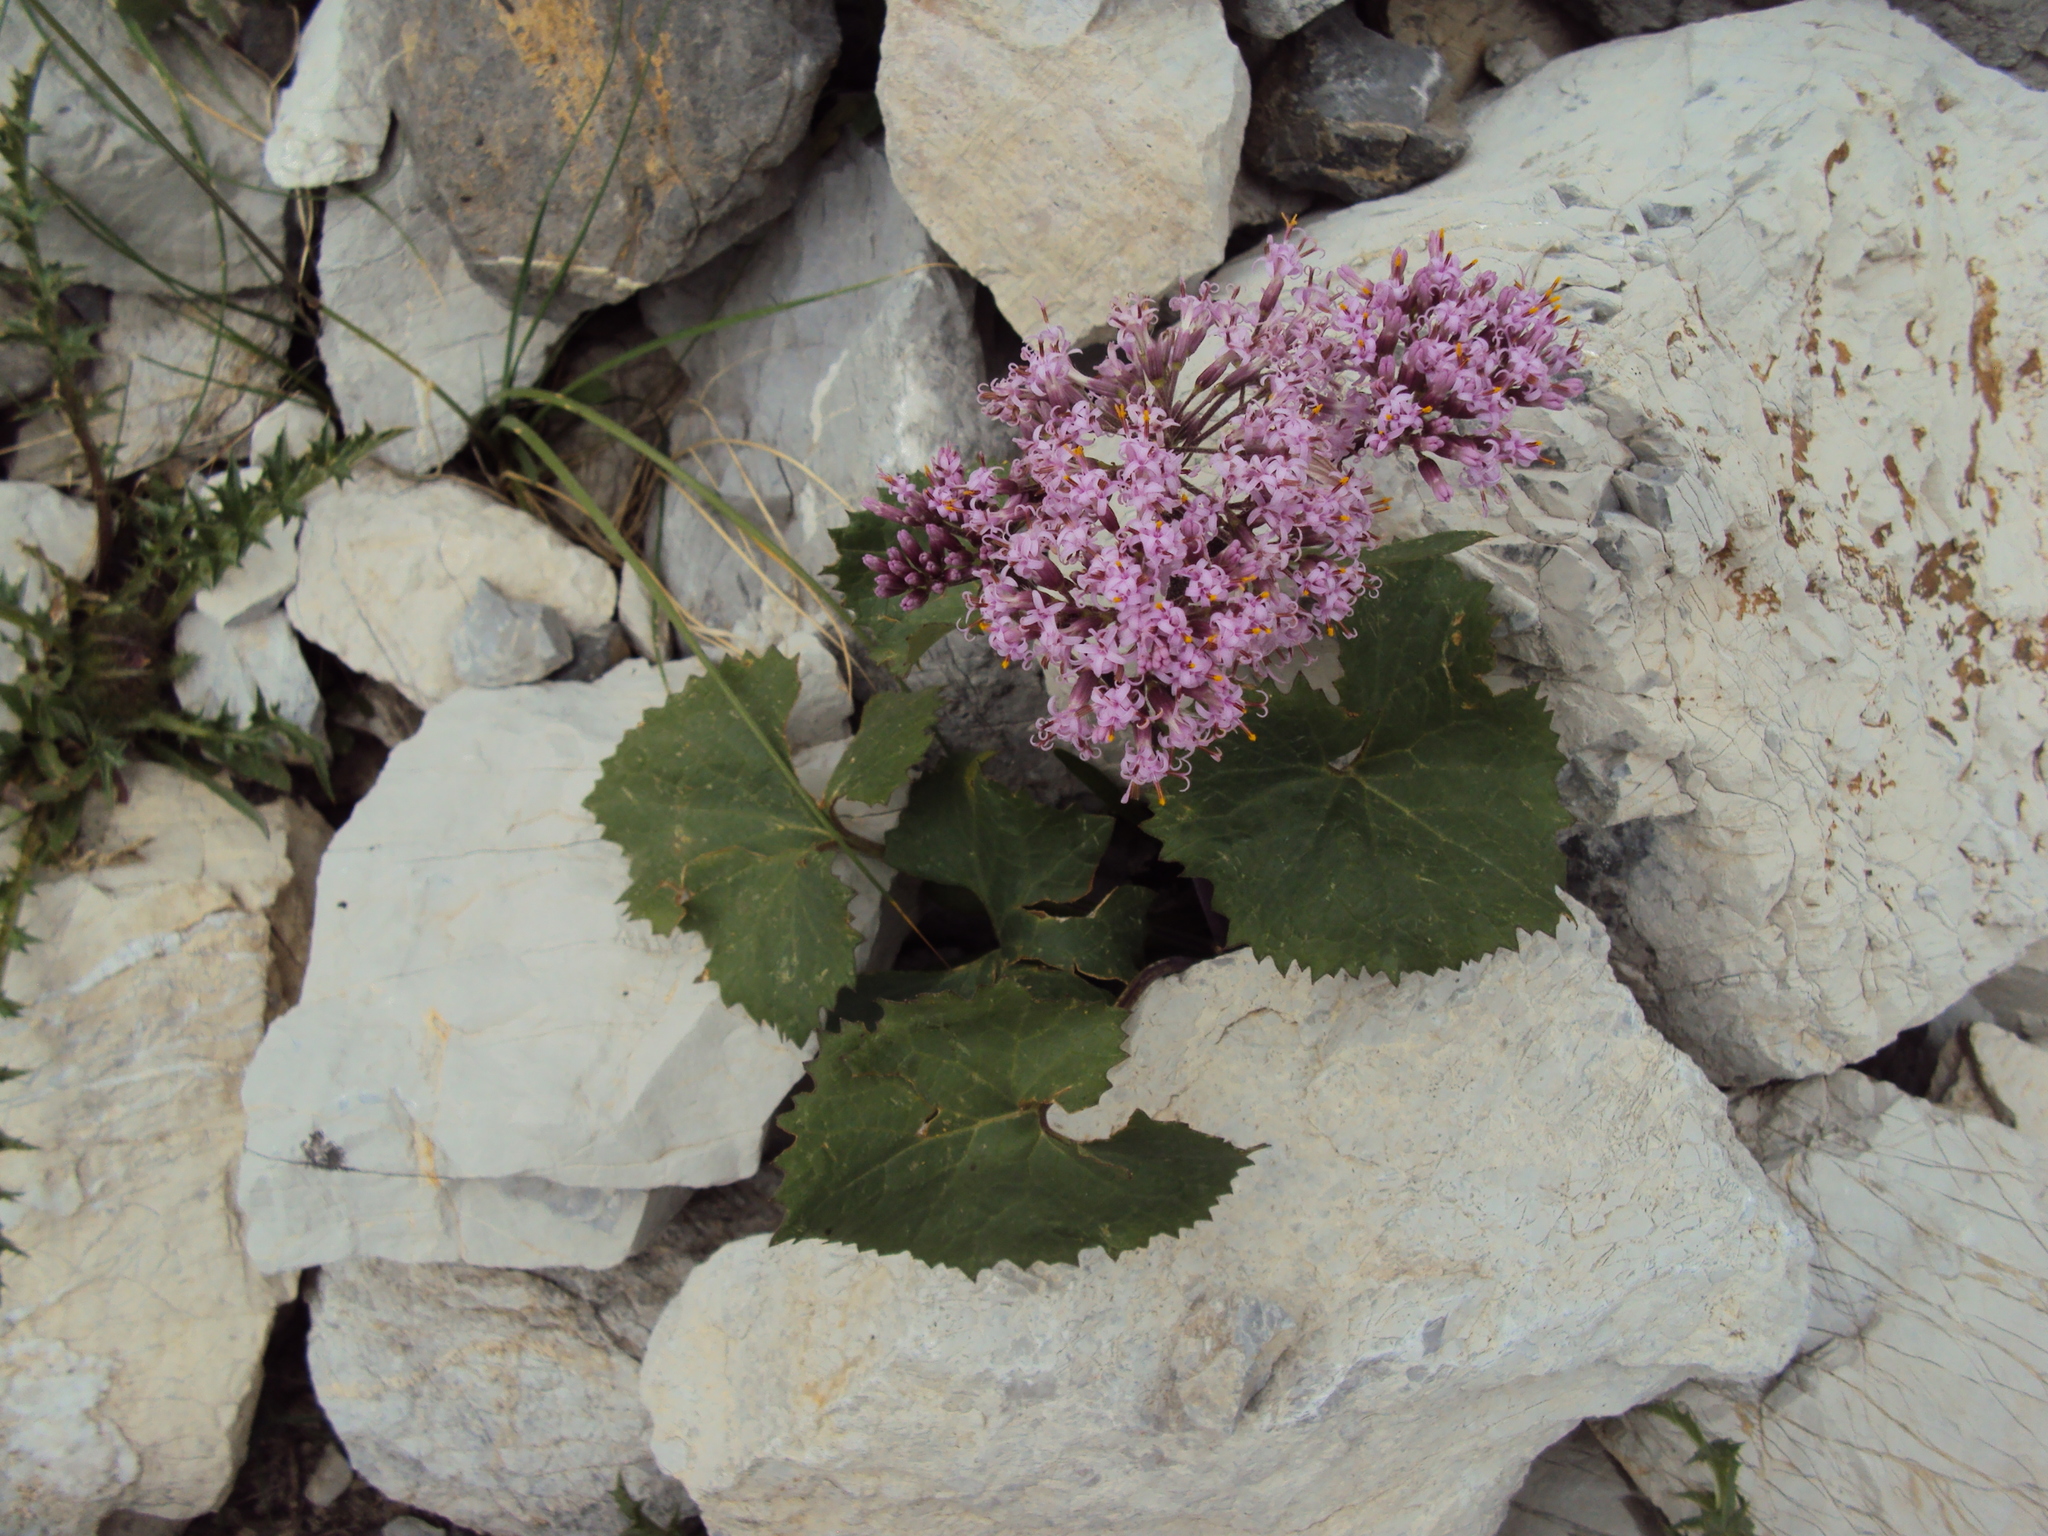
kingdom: Plantae
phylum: Tracheophyta
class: Magnoliopsida
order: Asterales
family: Asteraceae
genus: Adenostyles
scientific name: Adenostyles alpina
